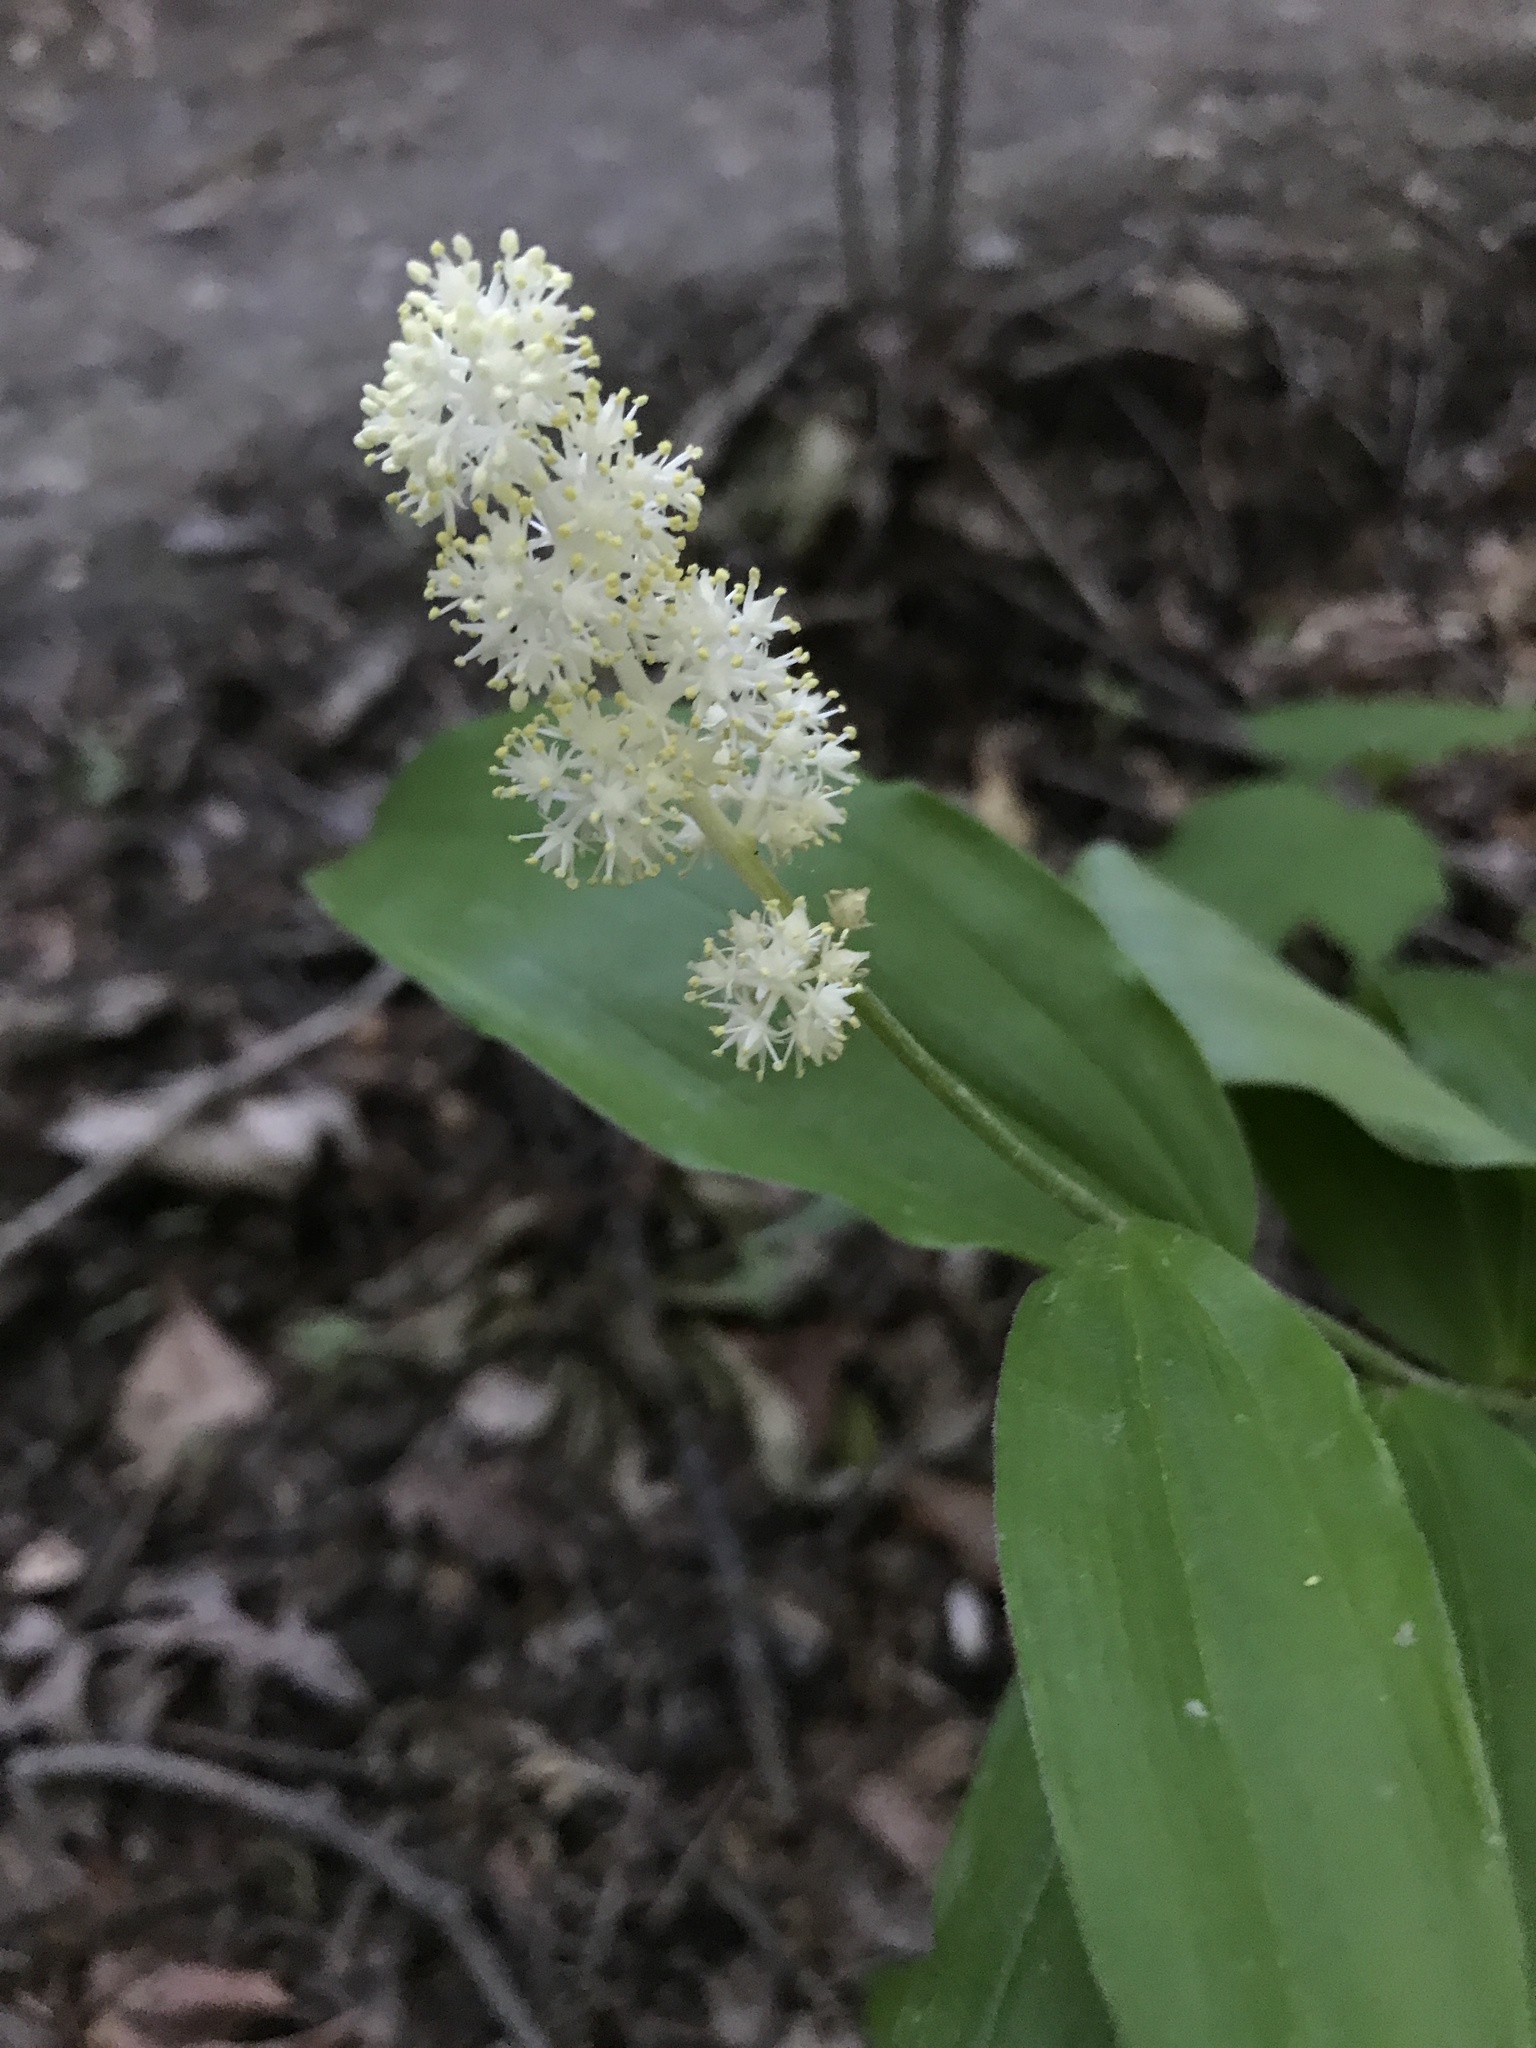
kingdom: Plantae
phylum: Tracheophyta
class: Liliopsida
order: Asparagales
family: Asparagaceae
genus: Maianthemum
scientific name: Maianthemum racemosum
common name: False spikenard
